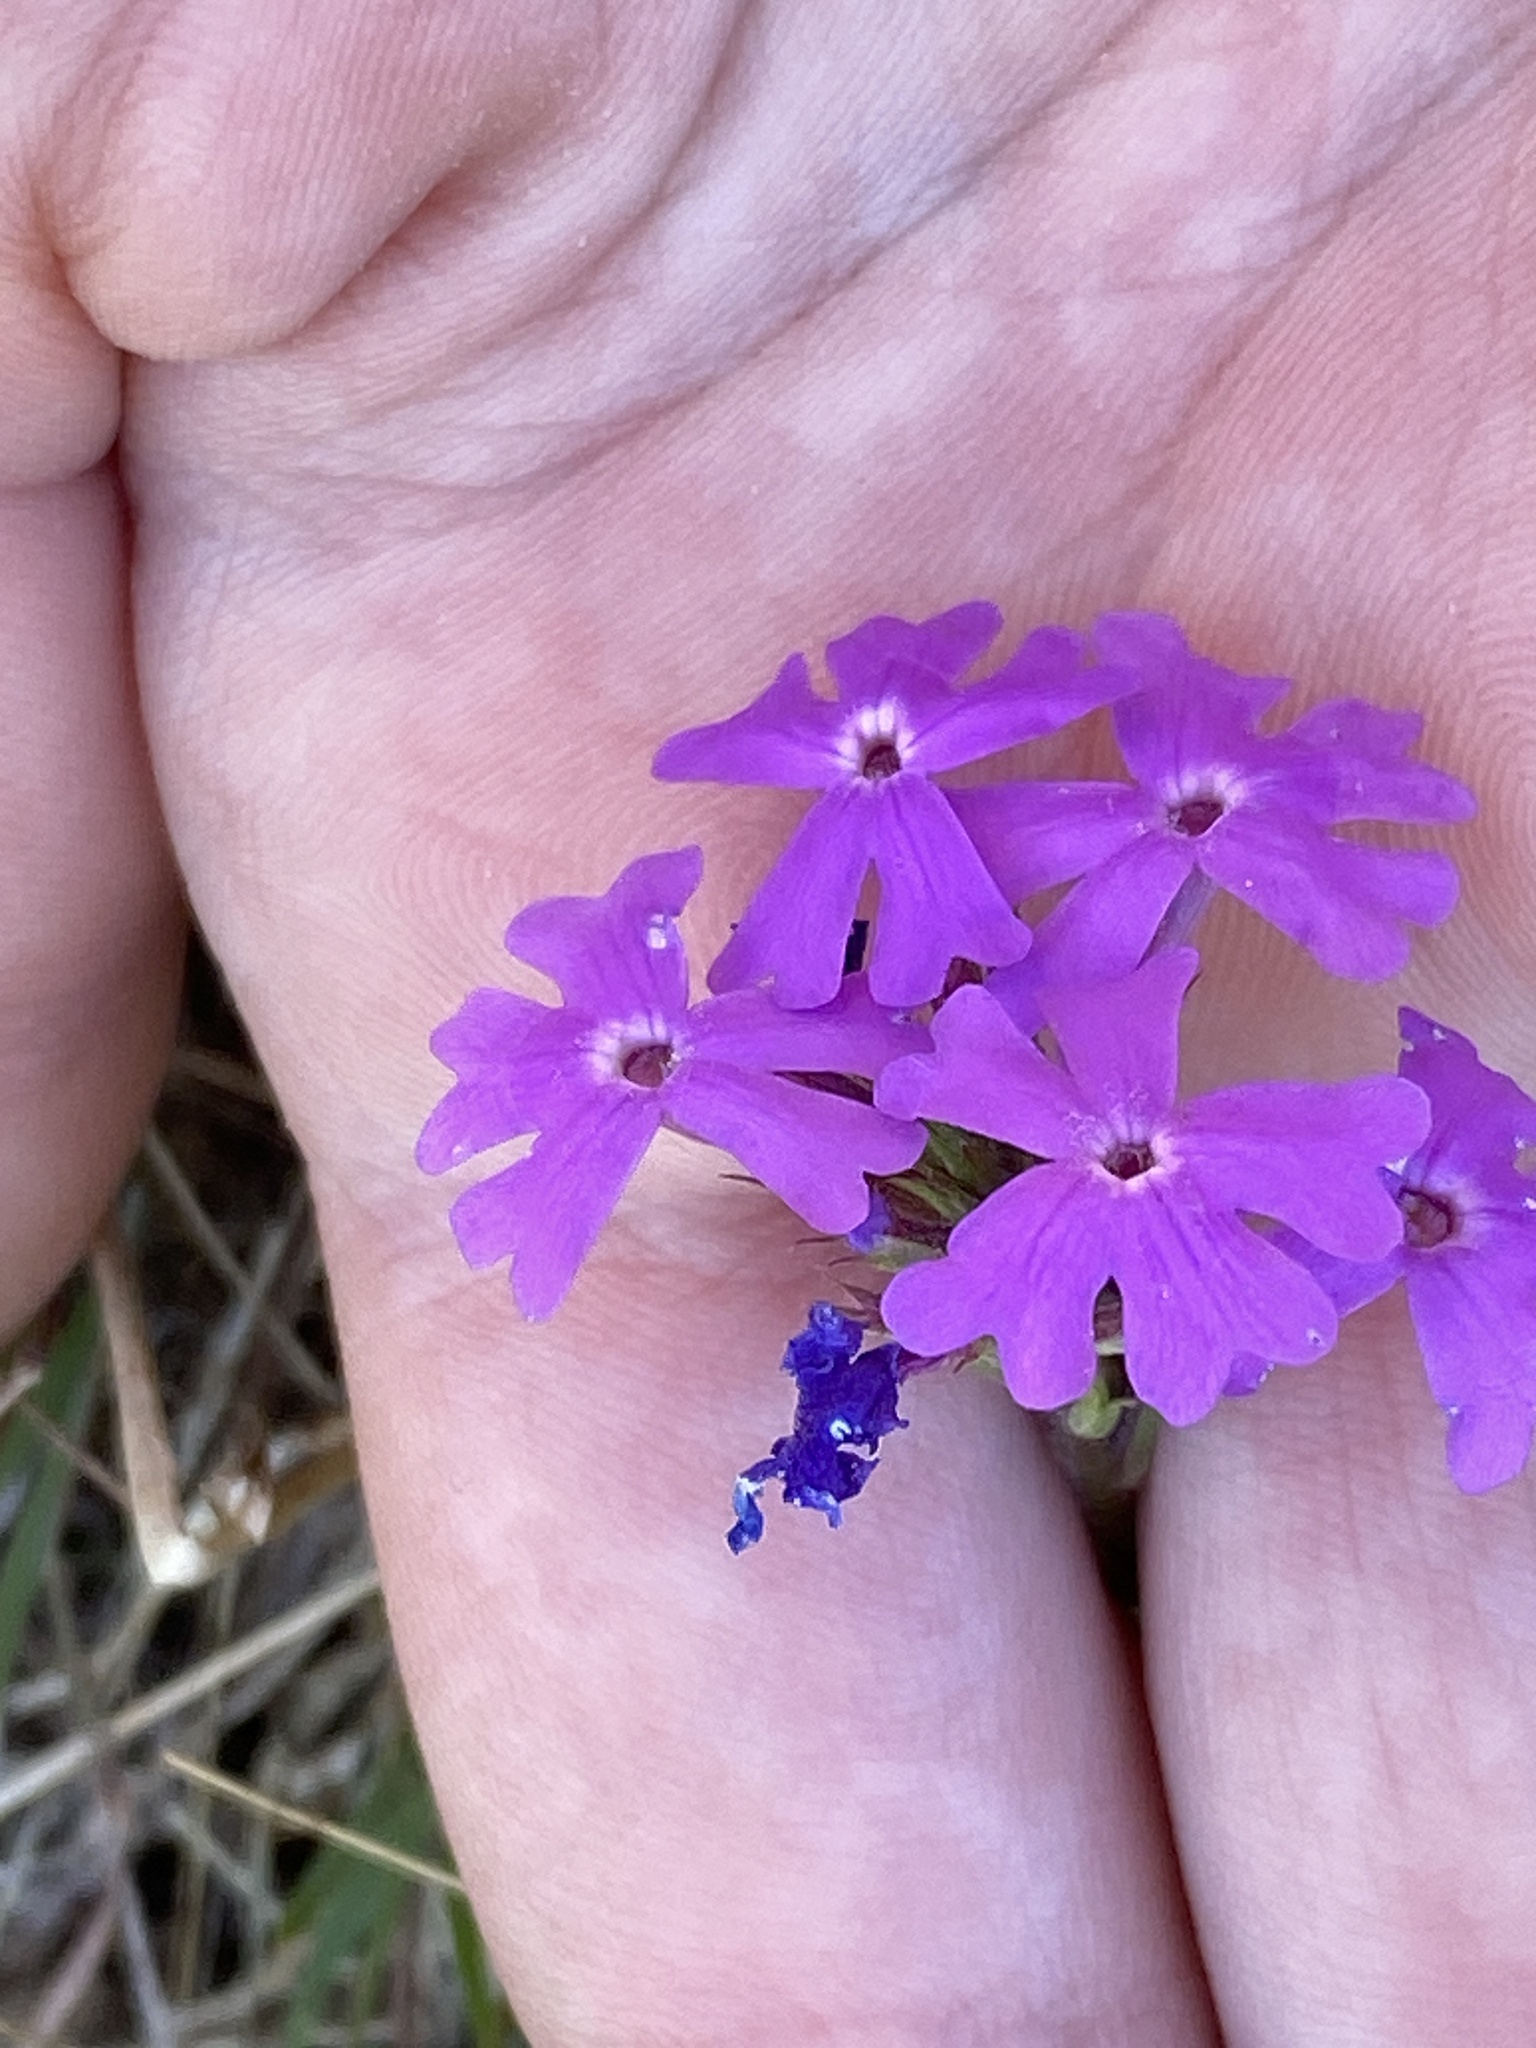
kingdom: Plantae
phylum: Tracheophyta
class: Magnoliopsida
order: Lamiales
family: Verbenaceae
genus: Verbena
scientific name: Verbena aristigera
